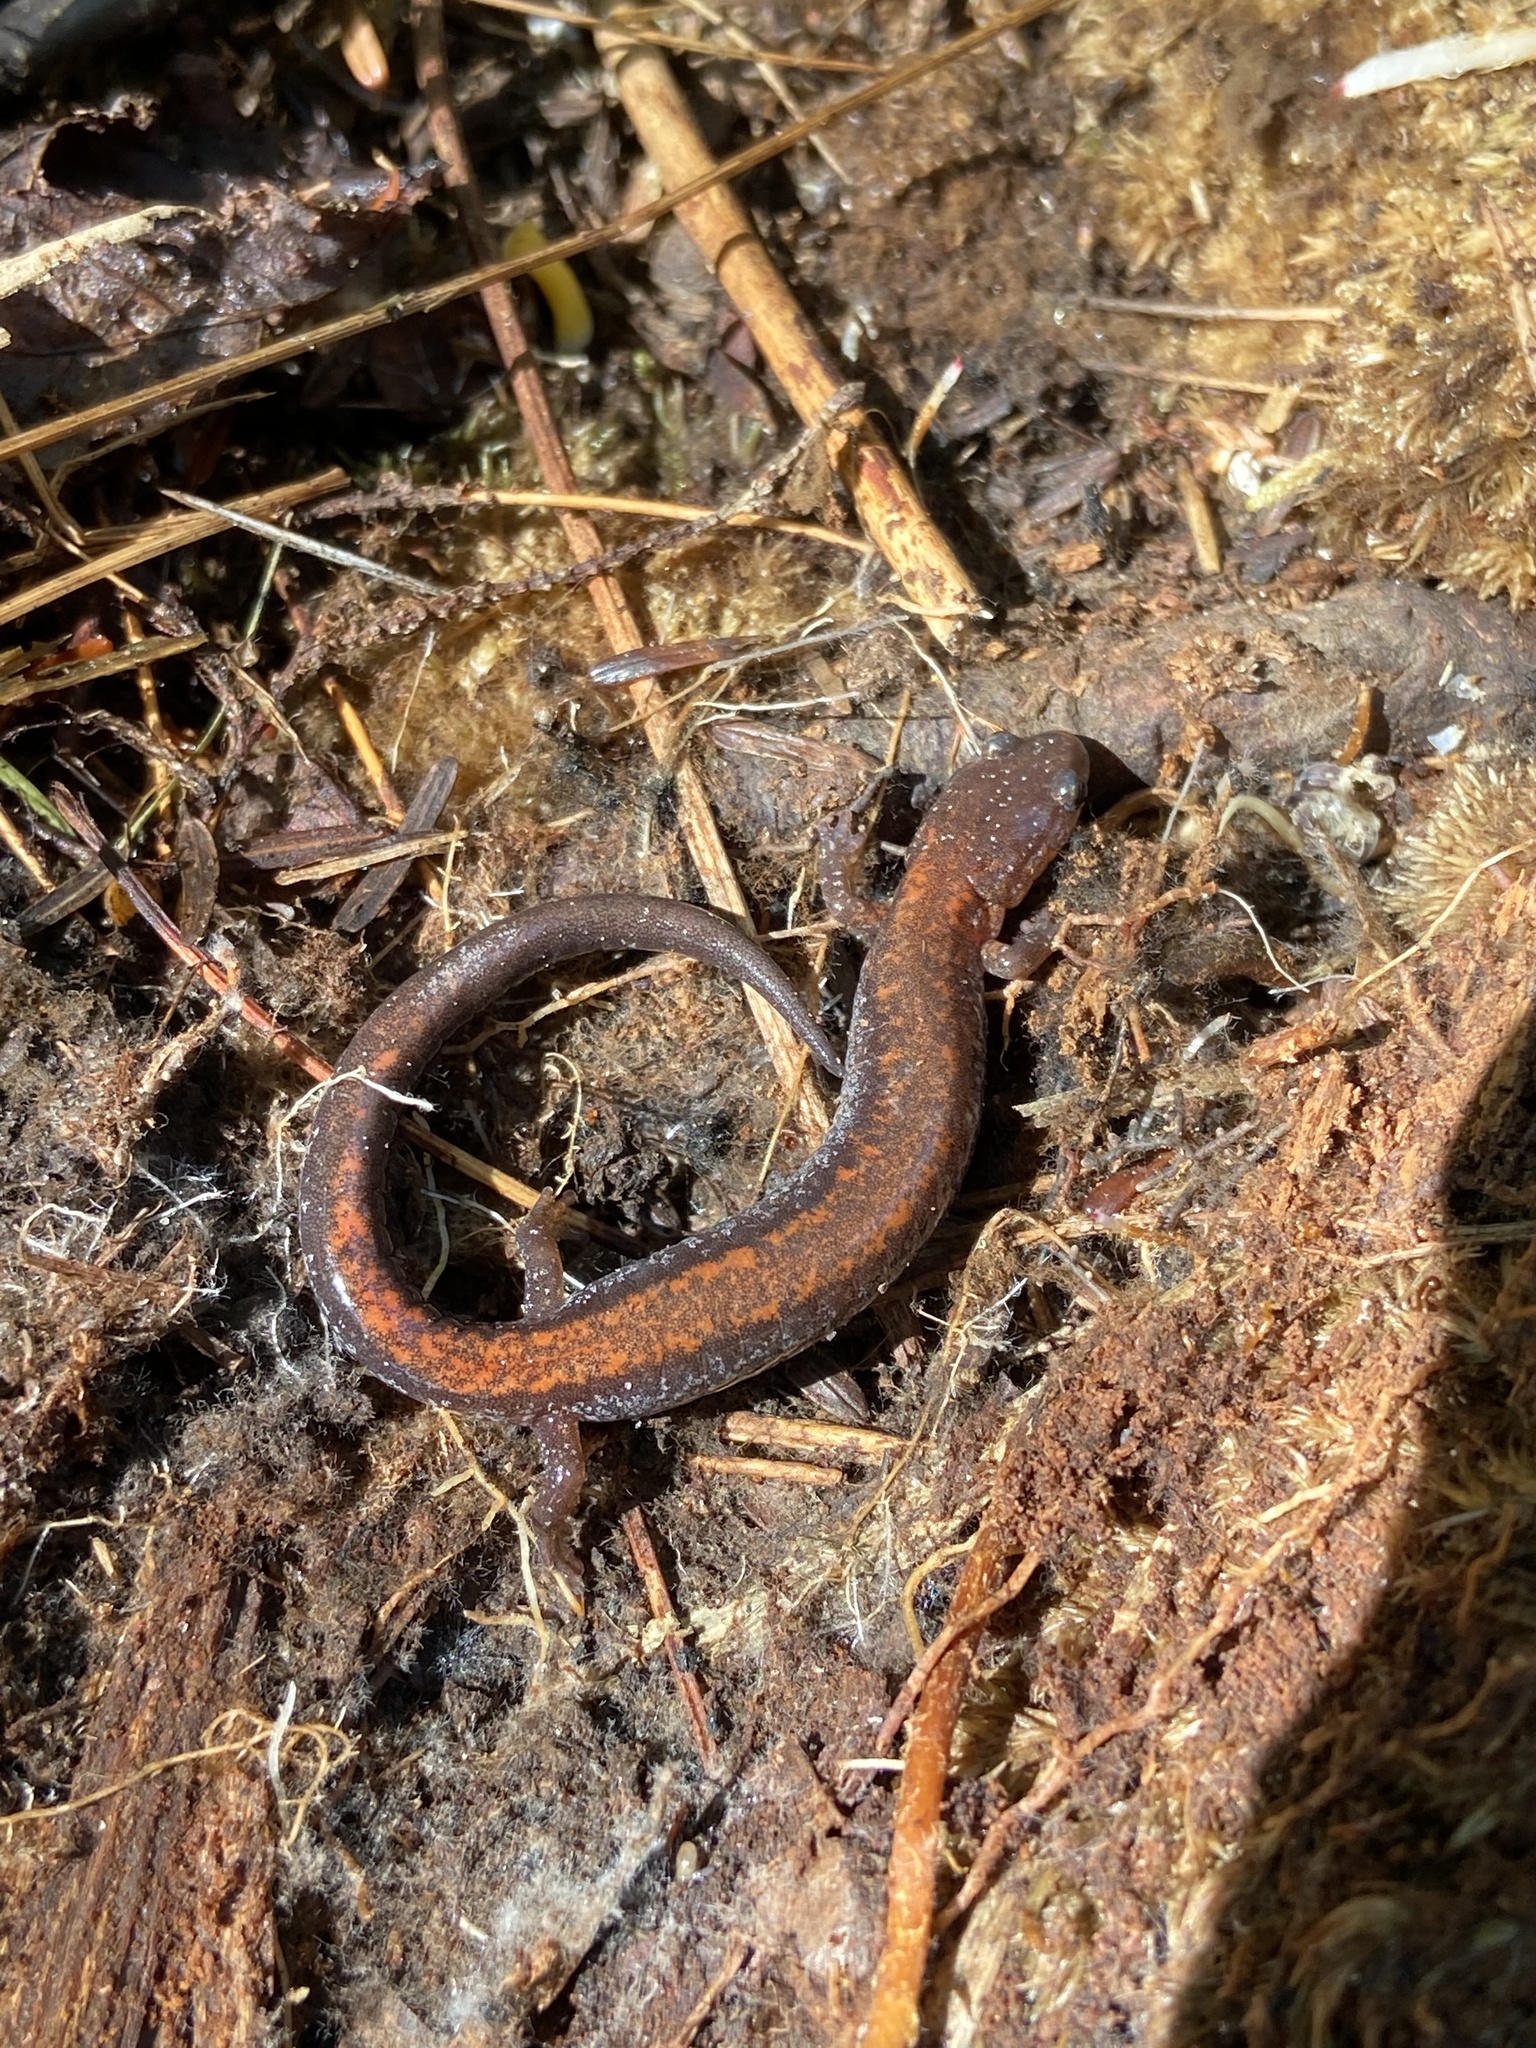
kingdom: Animalia
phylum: Chordata
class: Amphibia
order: Caudata
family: Plethodontidae
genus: Plethodon
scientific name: Plethodon cinereus
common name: Redback salamander
